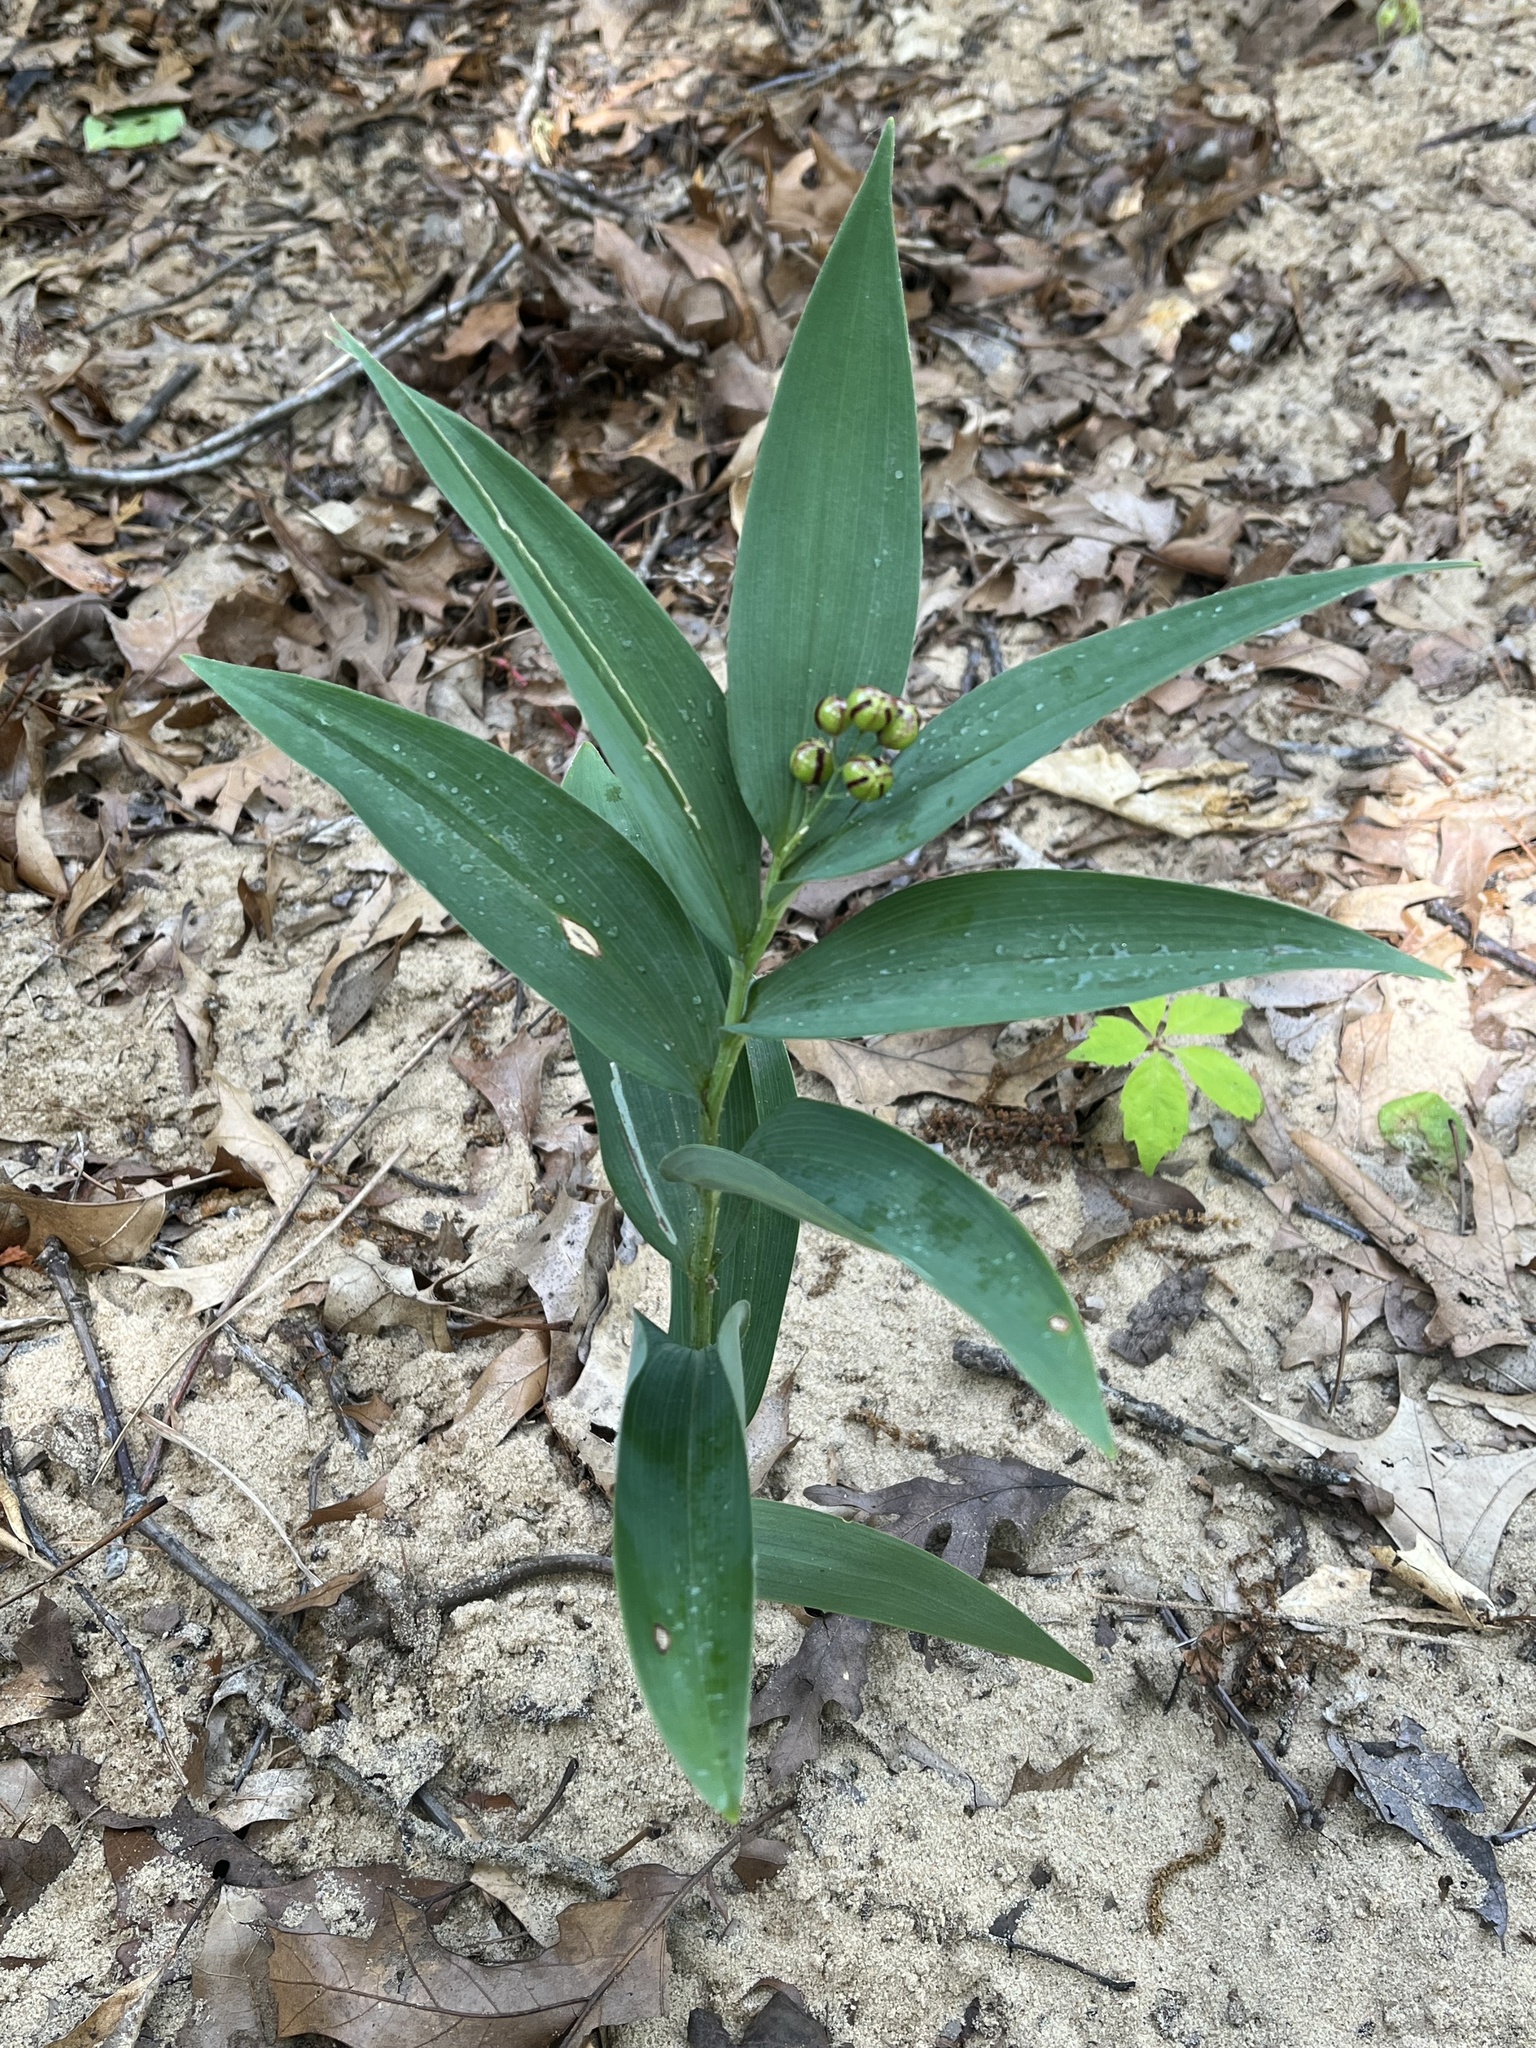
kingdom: Plantae
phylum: Tracheophyta
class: Liliopsida
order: Asparagales
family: Asparagaceae
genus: Maianthemum
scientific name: Maianthemum stellatum
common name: Little false solomon's seal
